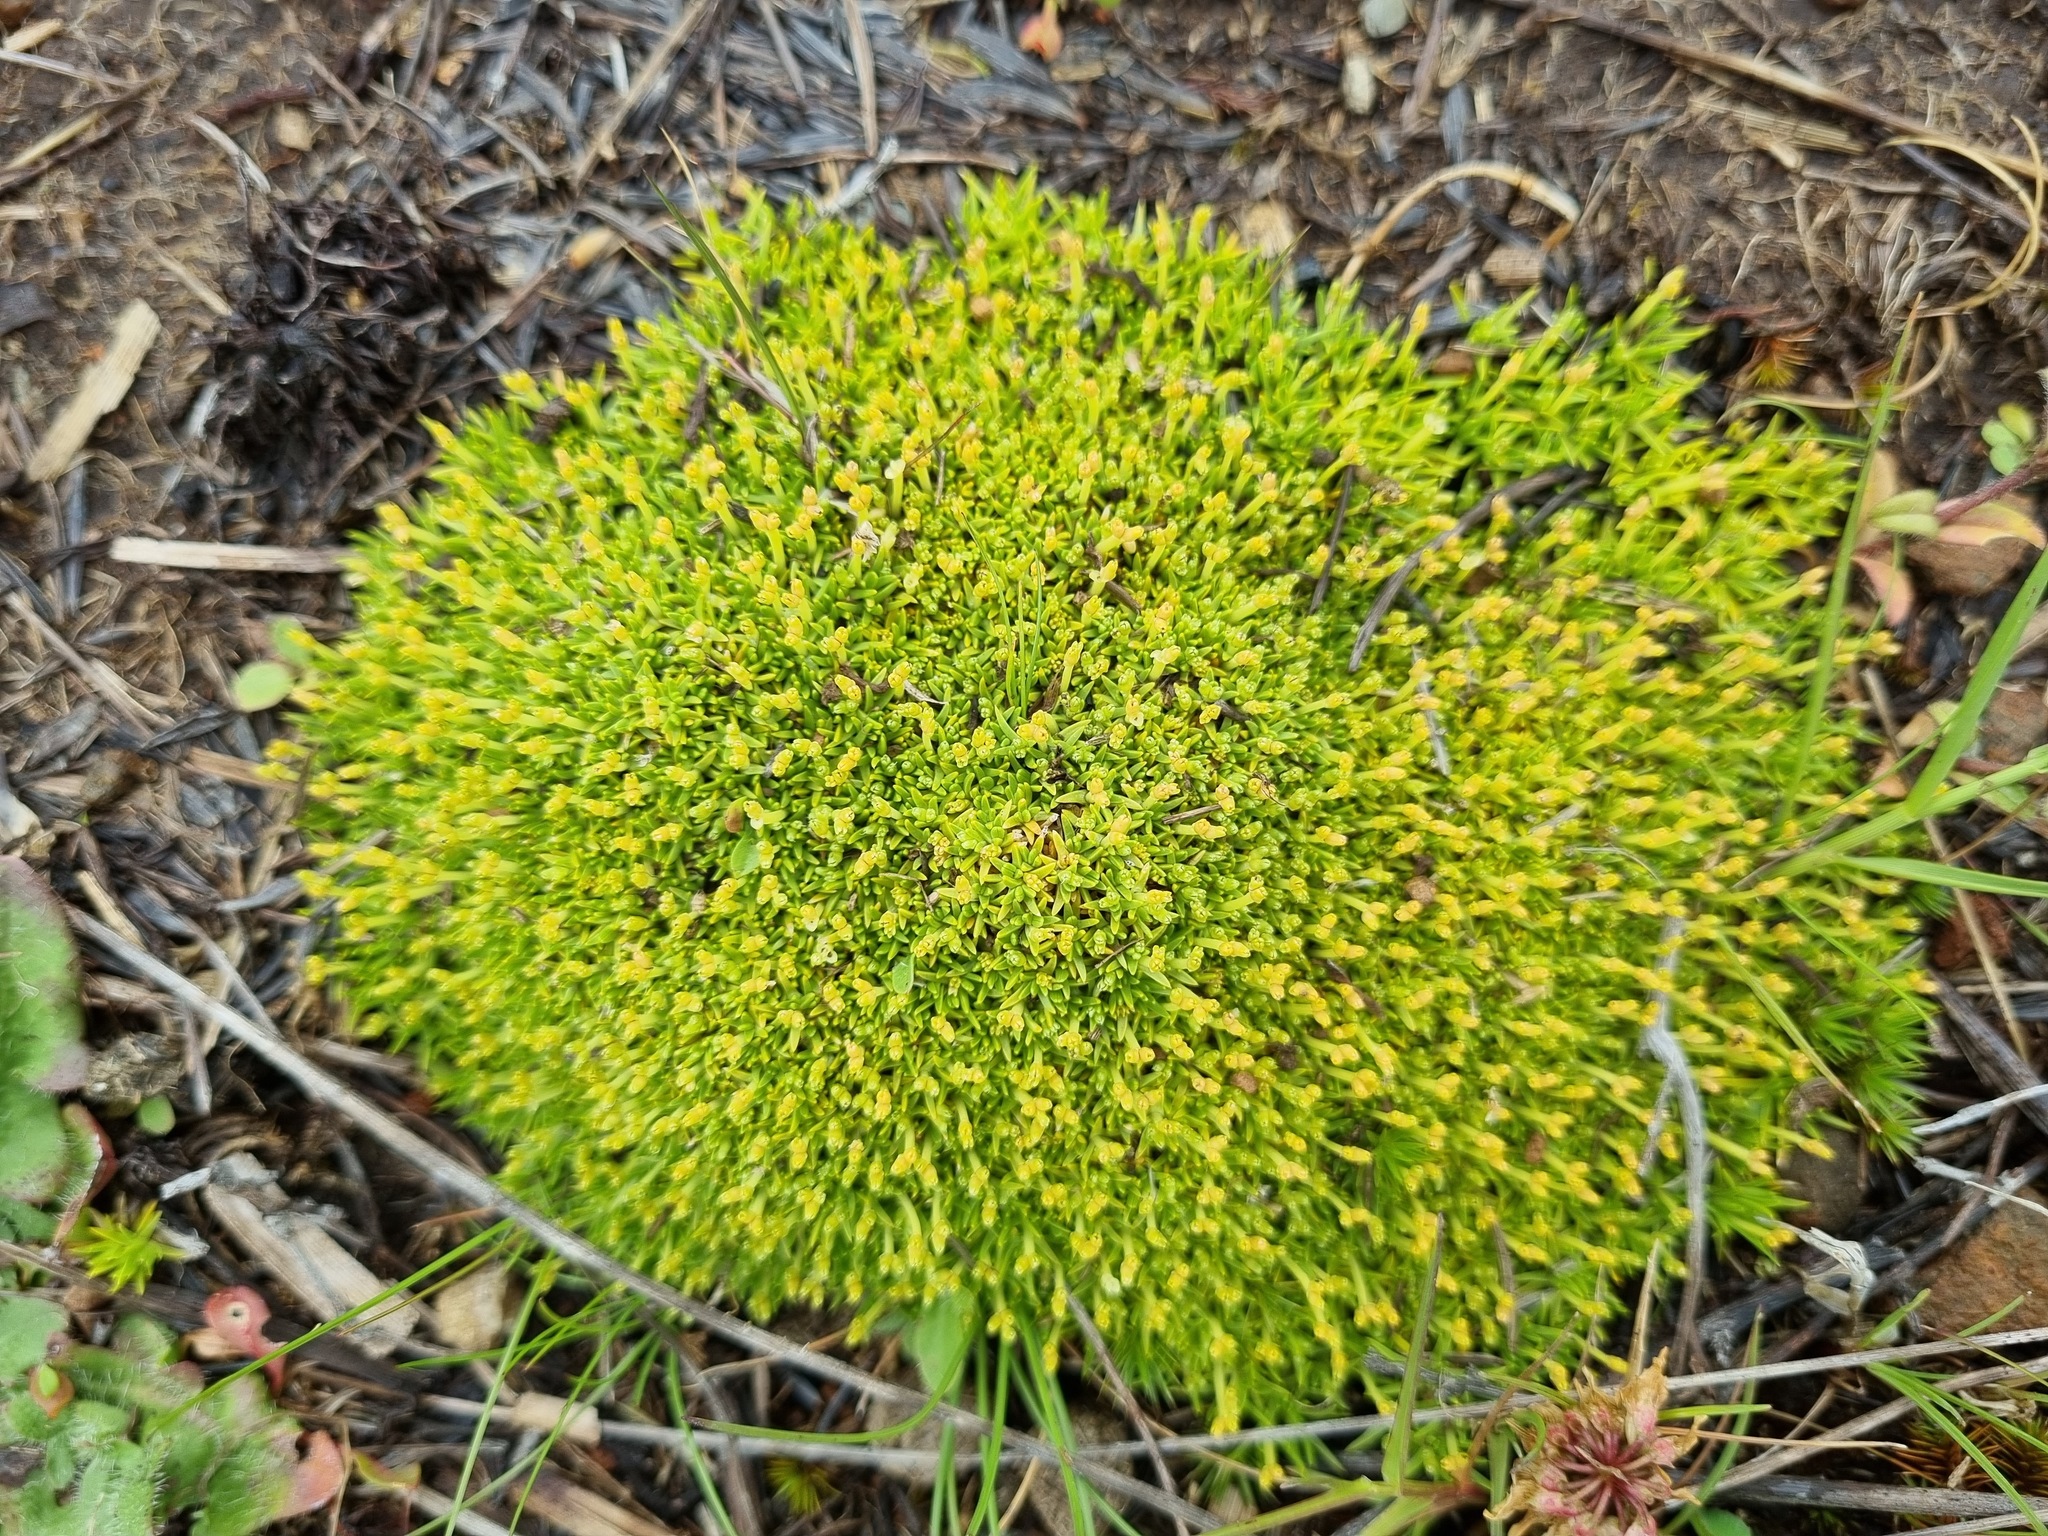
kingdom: Plantae
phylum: Tracheophyta
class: Magnoliopsida
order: Caryophyllales
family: Caryophyllaceae
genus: Scleranthus
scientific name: Scleranthus biflorus
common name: Two-flower knawel
